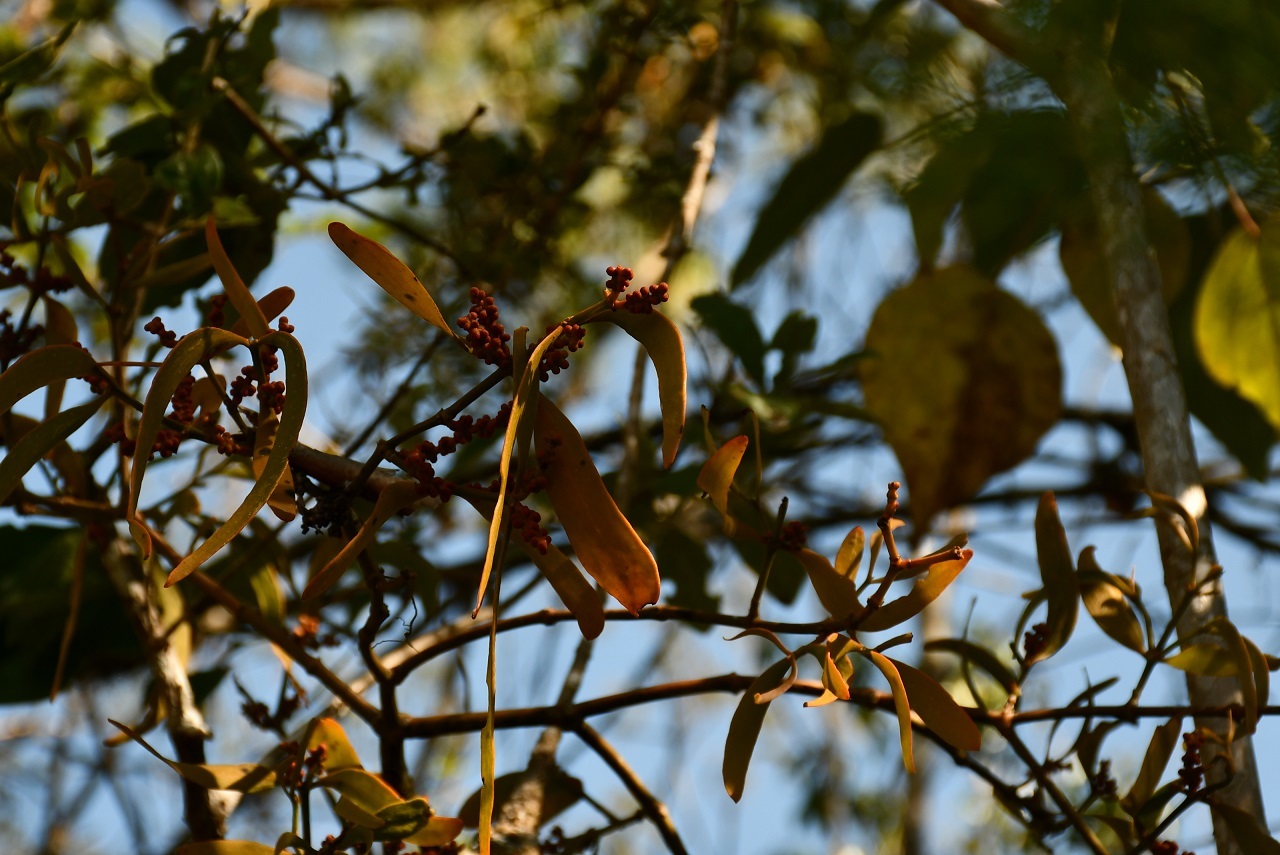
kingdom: Plantae
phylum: Tracheophyta
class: Magnoliopsida
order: Santalales
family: Viscaceae
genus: Phoradendron
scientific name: Phoradendron nervosum
